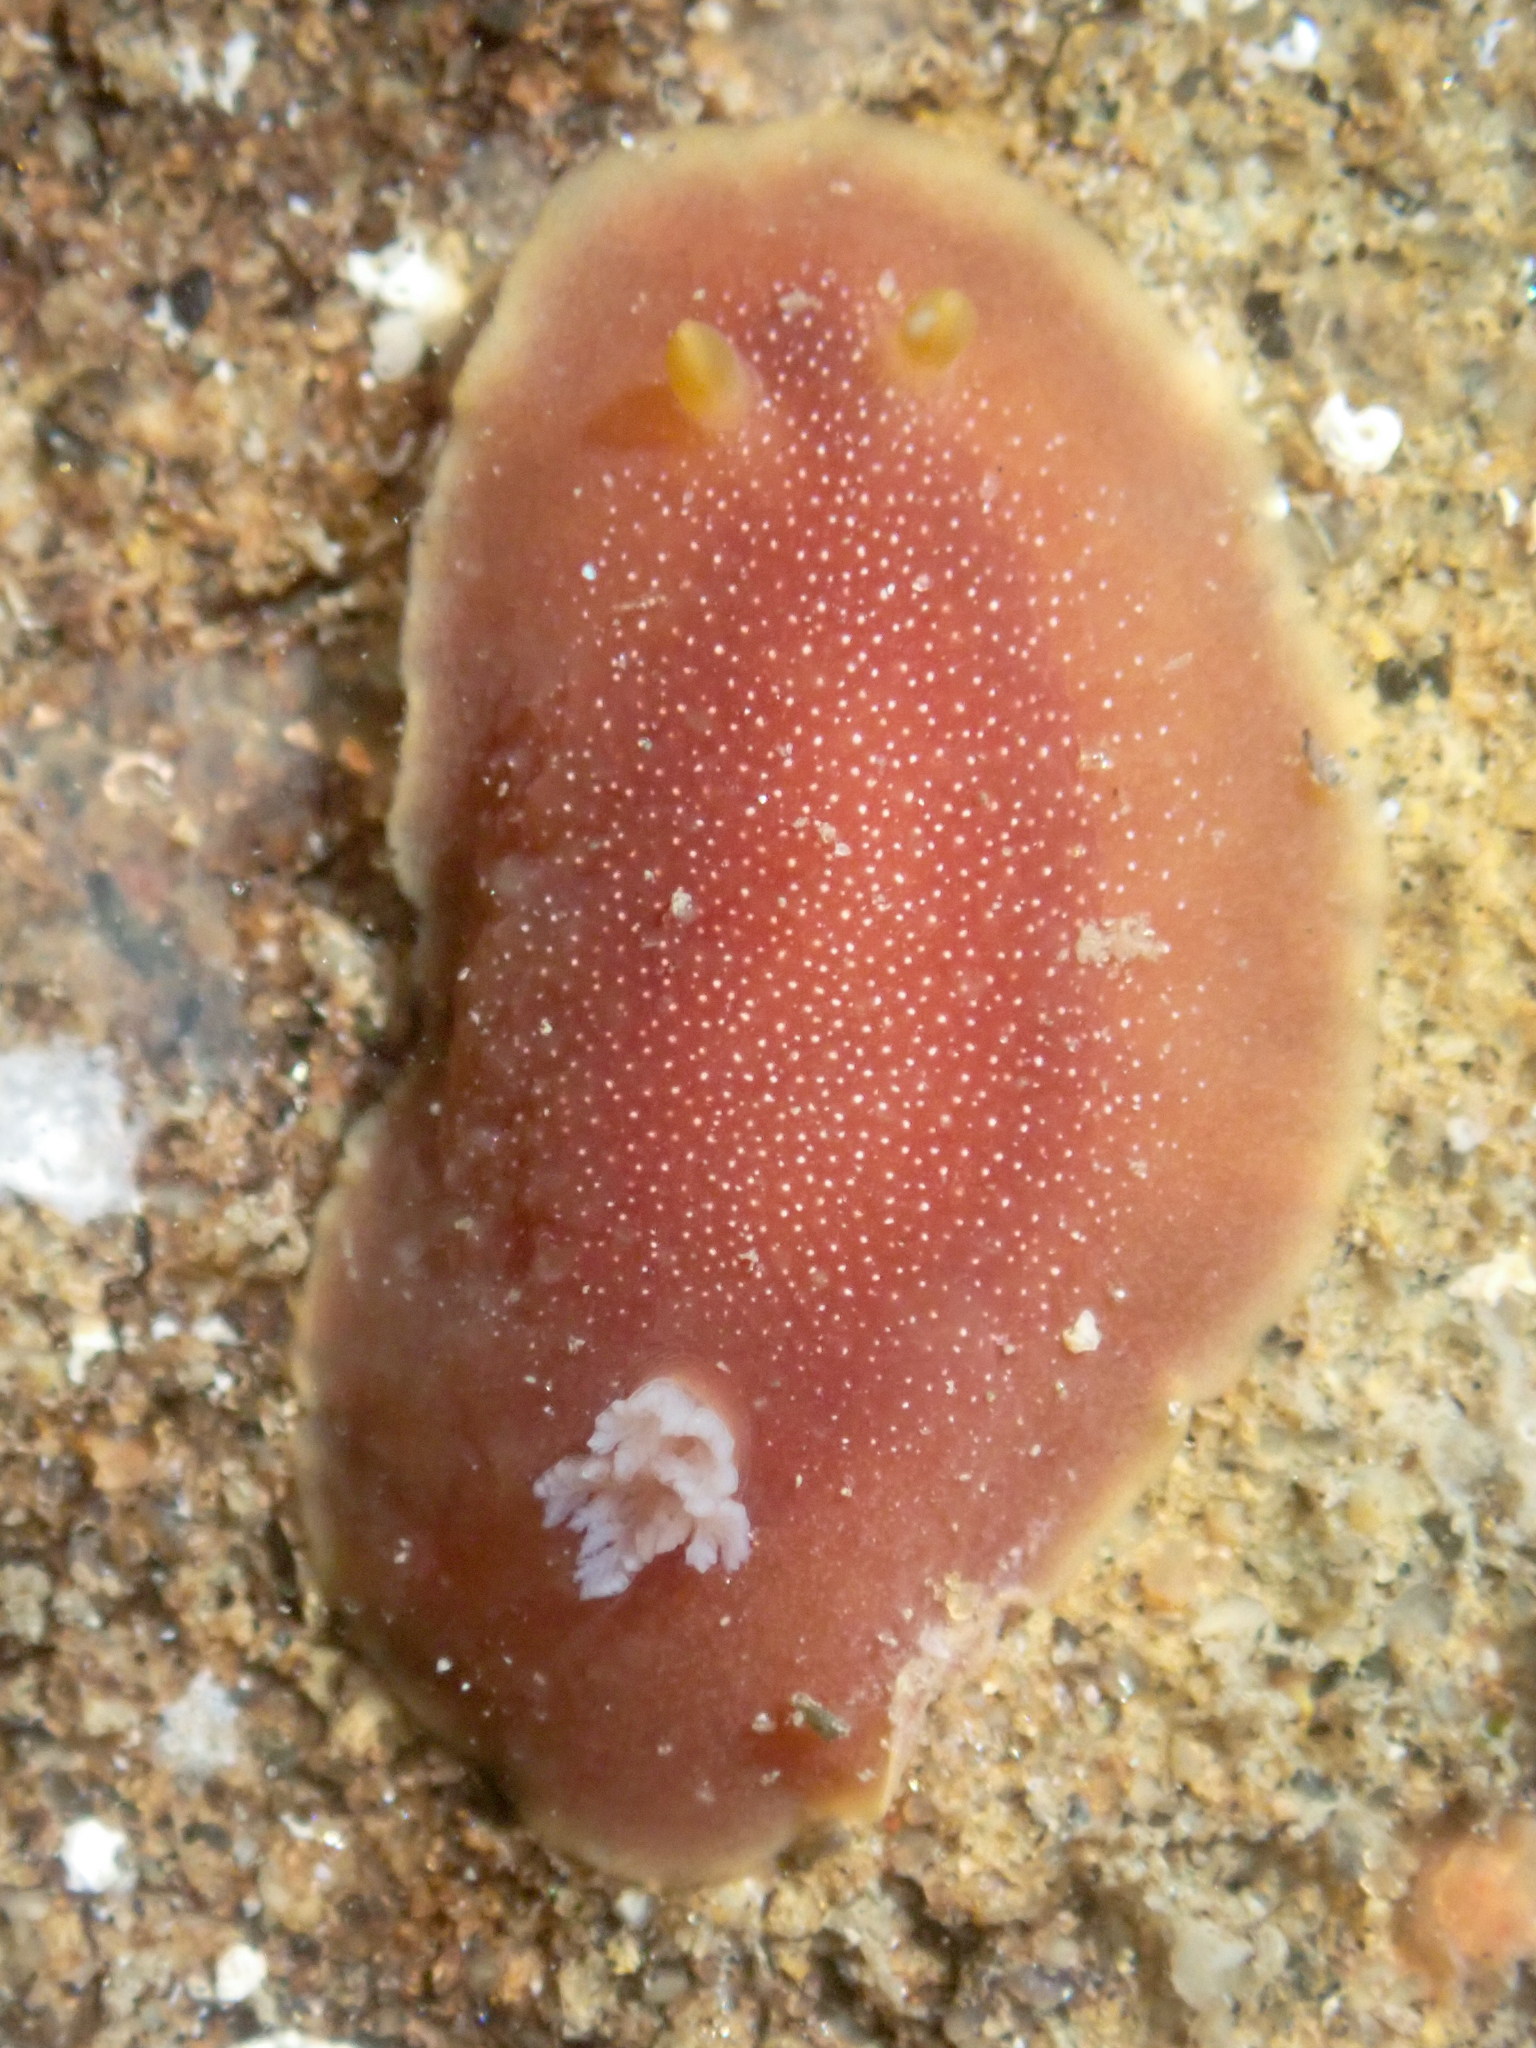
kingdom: Animalia
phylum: Mollusca
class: Gastropoda
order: Nudibranchia
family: Dendrodorididae
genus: Doriopsilla
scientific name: Doriopsilla albopunctata
